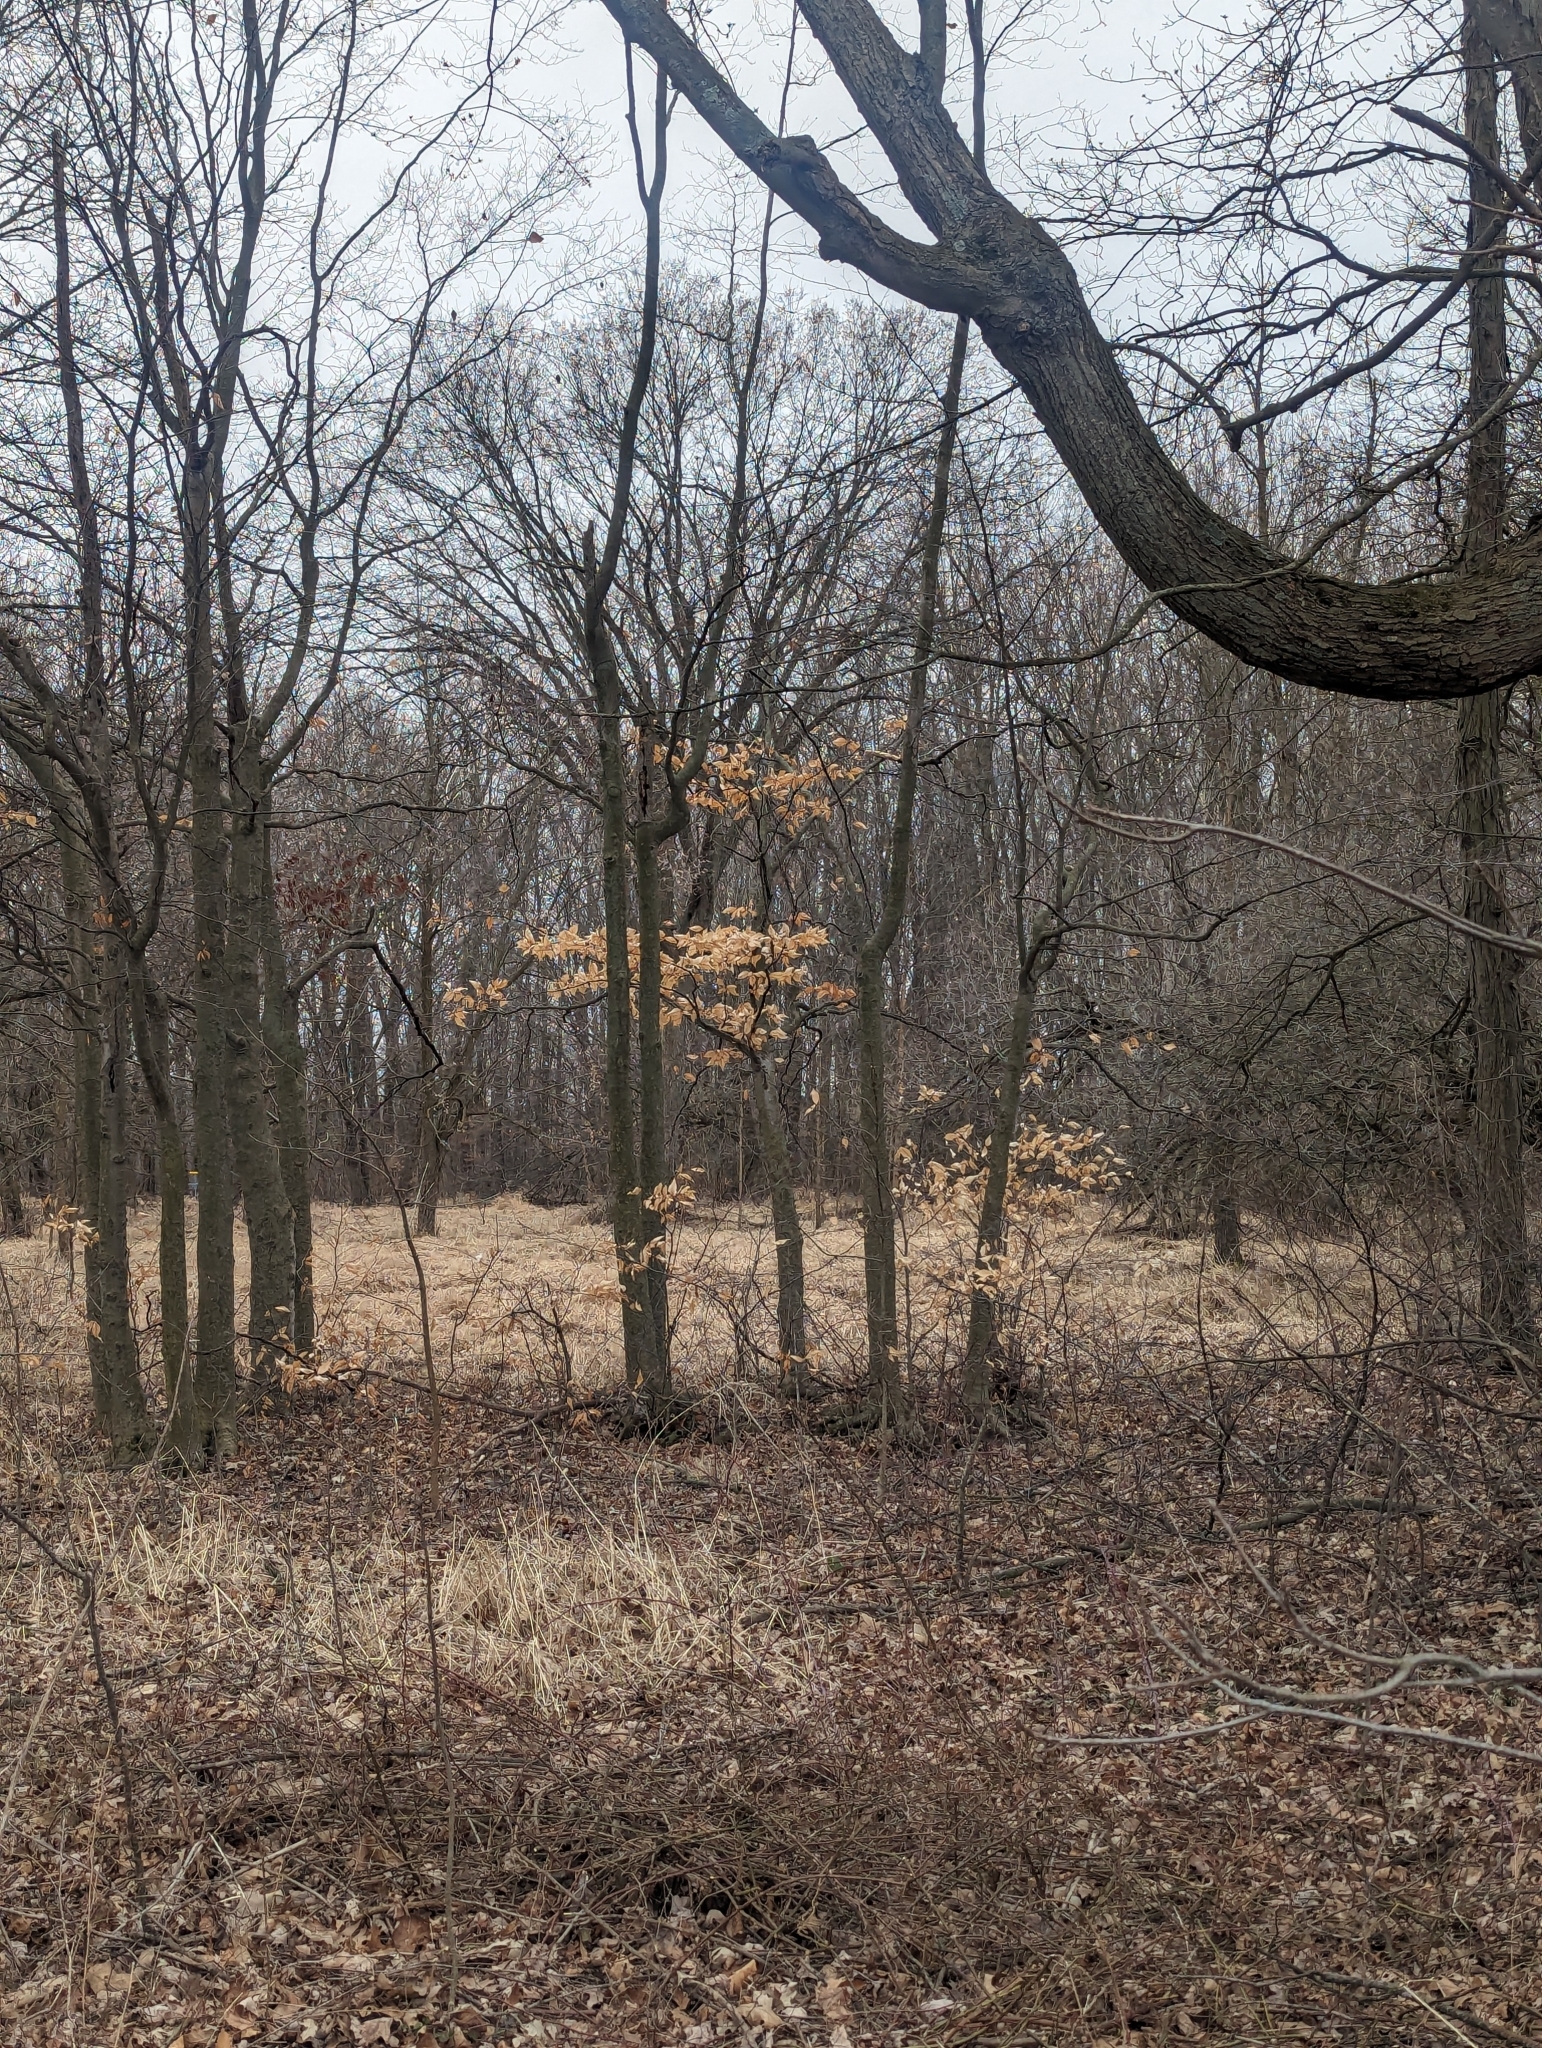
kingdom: Plantae
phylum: Tracheophyta
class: Magnoliopsida
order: Fagales
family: Fagaceae
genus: Fagus
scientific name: Fagus grandifolia
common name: American beech
